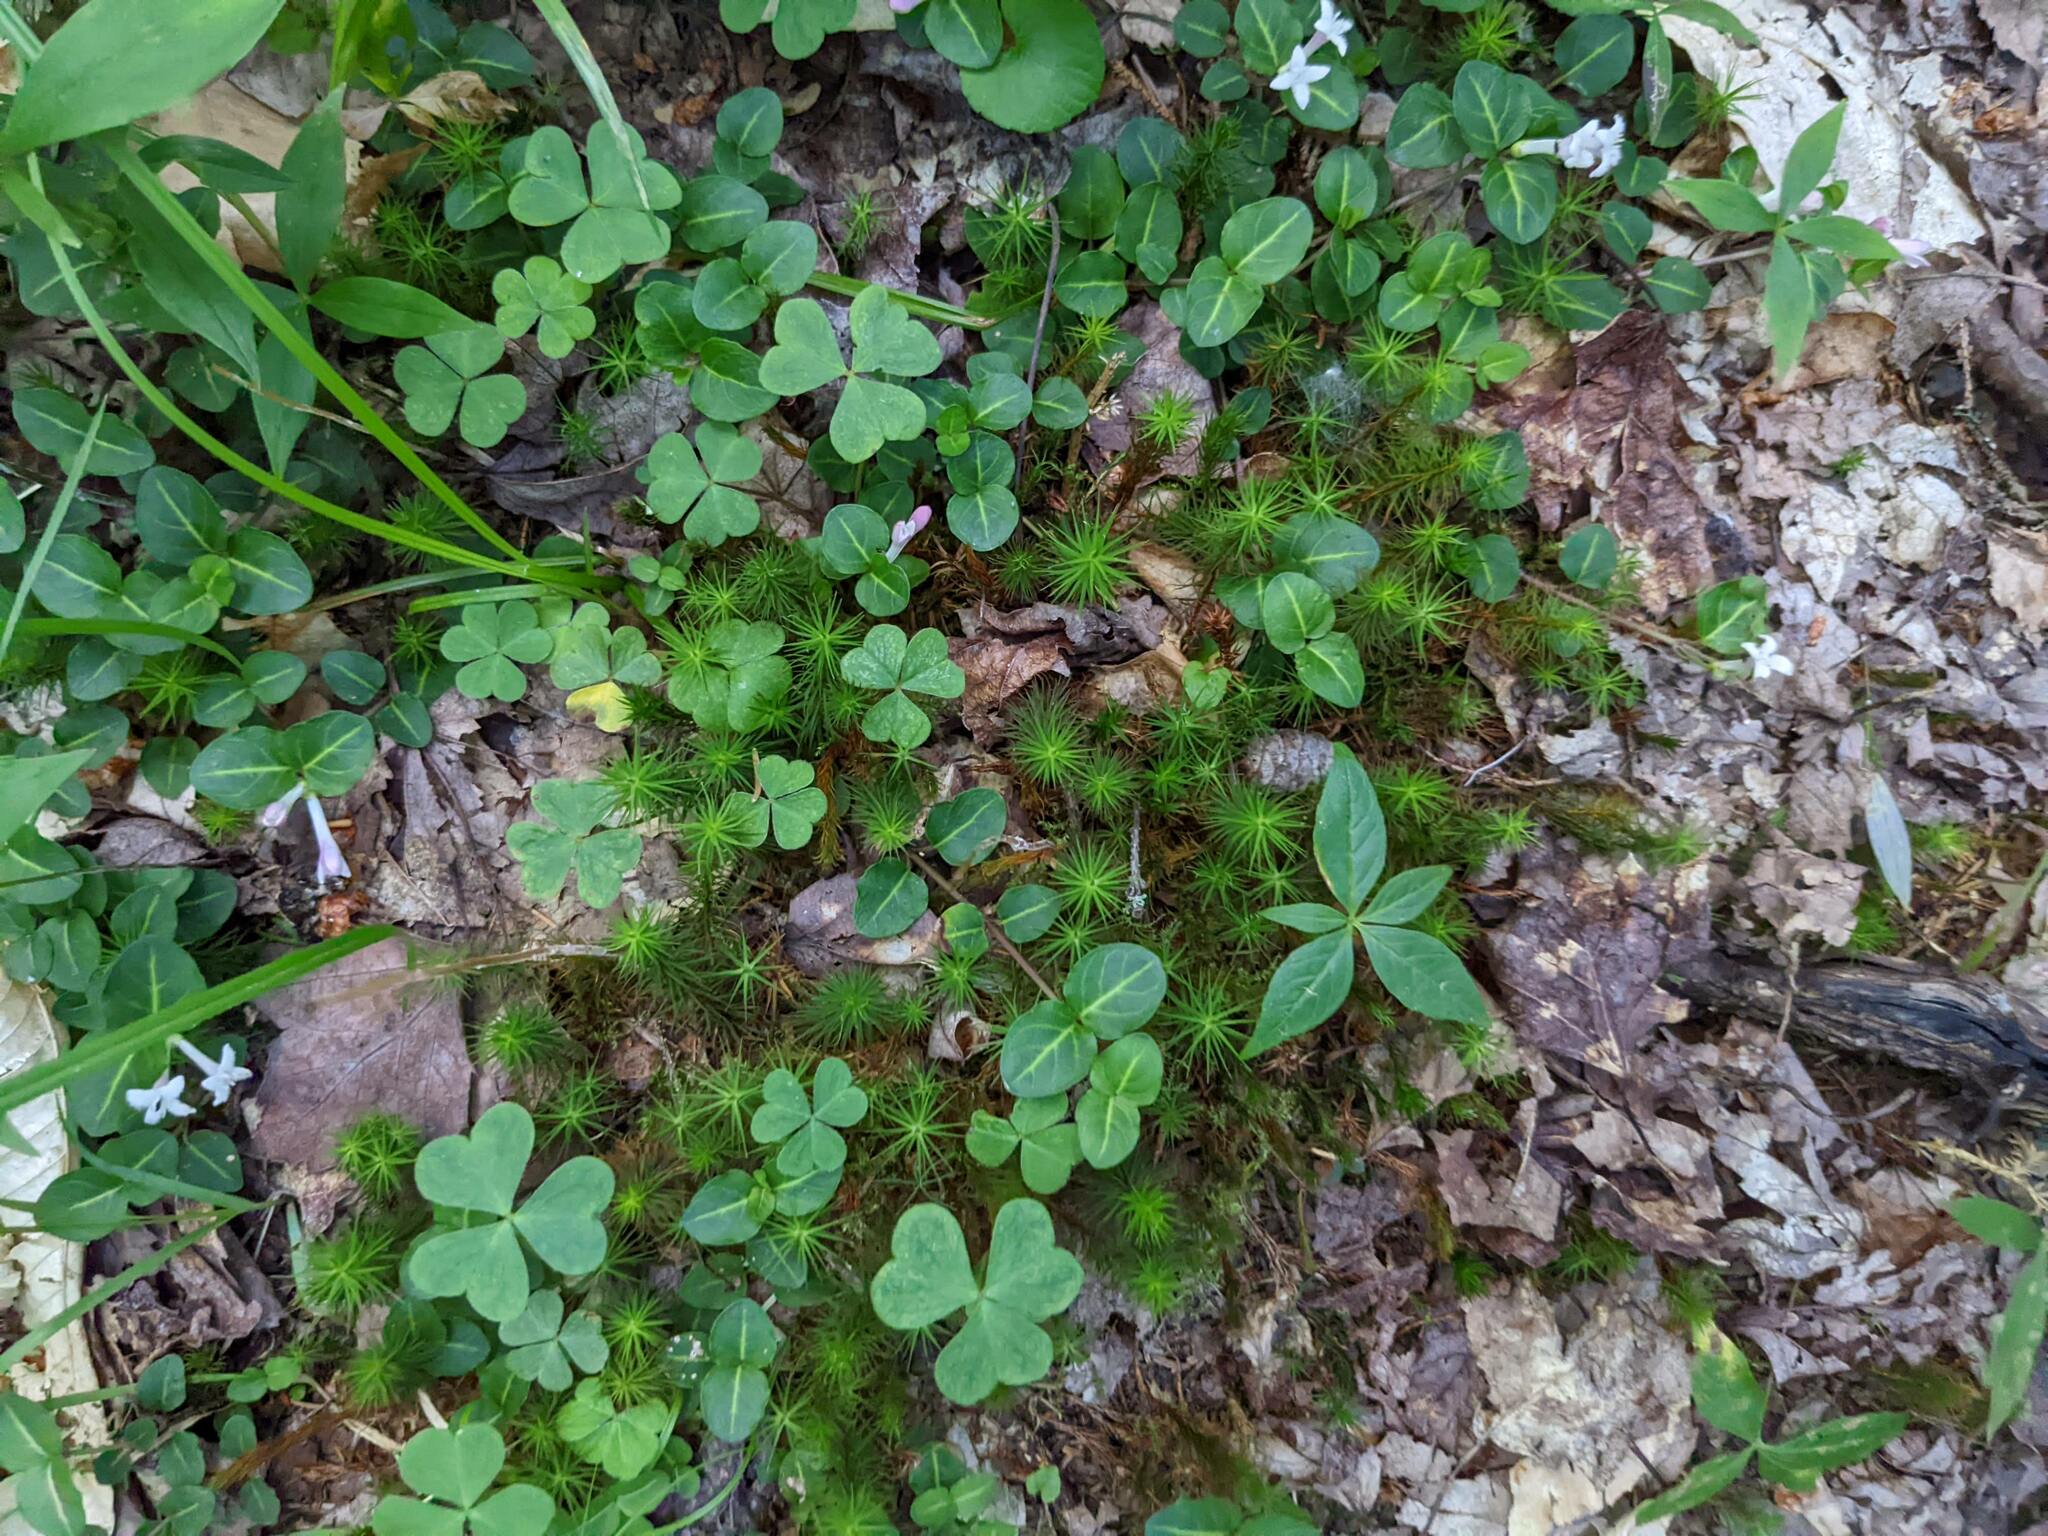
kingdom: Plantae
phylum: Tracheophyta
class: Magnoliopsida
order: Oxalidales
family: Oxalidaceae
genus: Oxalis
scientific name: Oxalis montana
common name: American wood-sorrel
